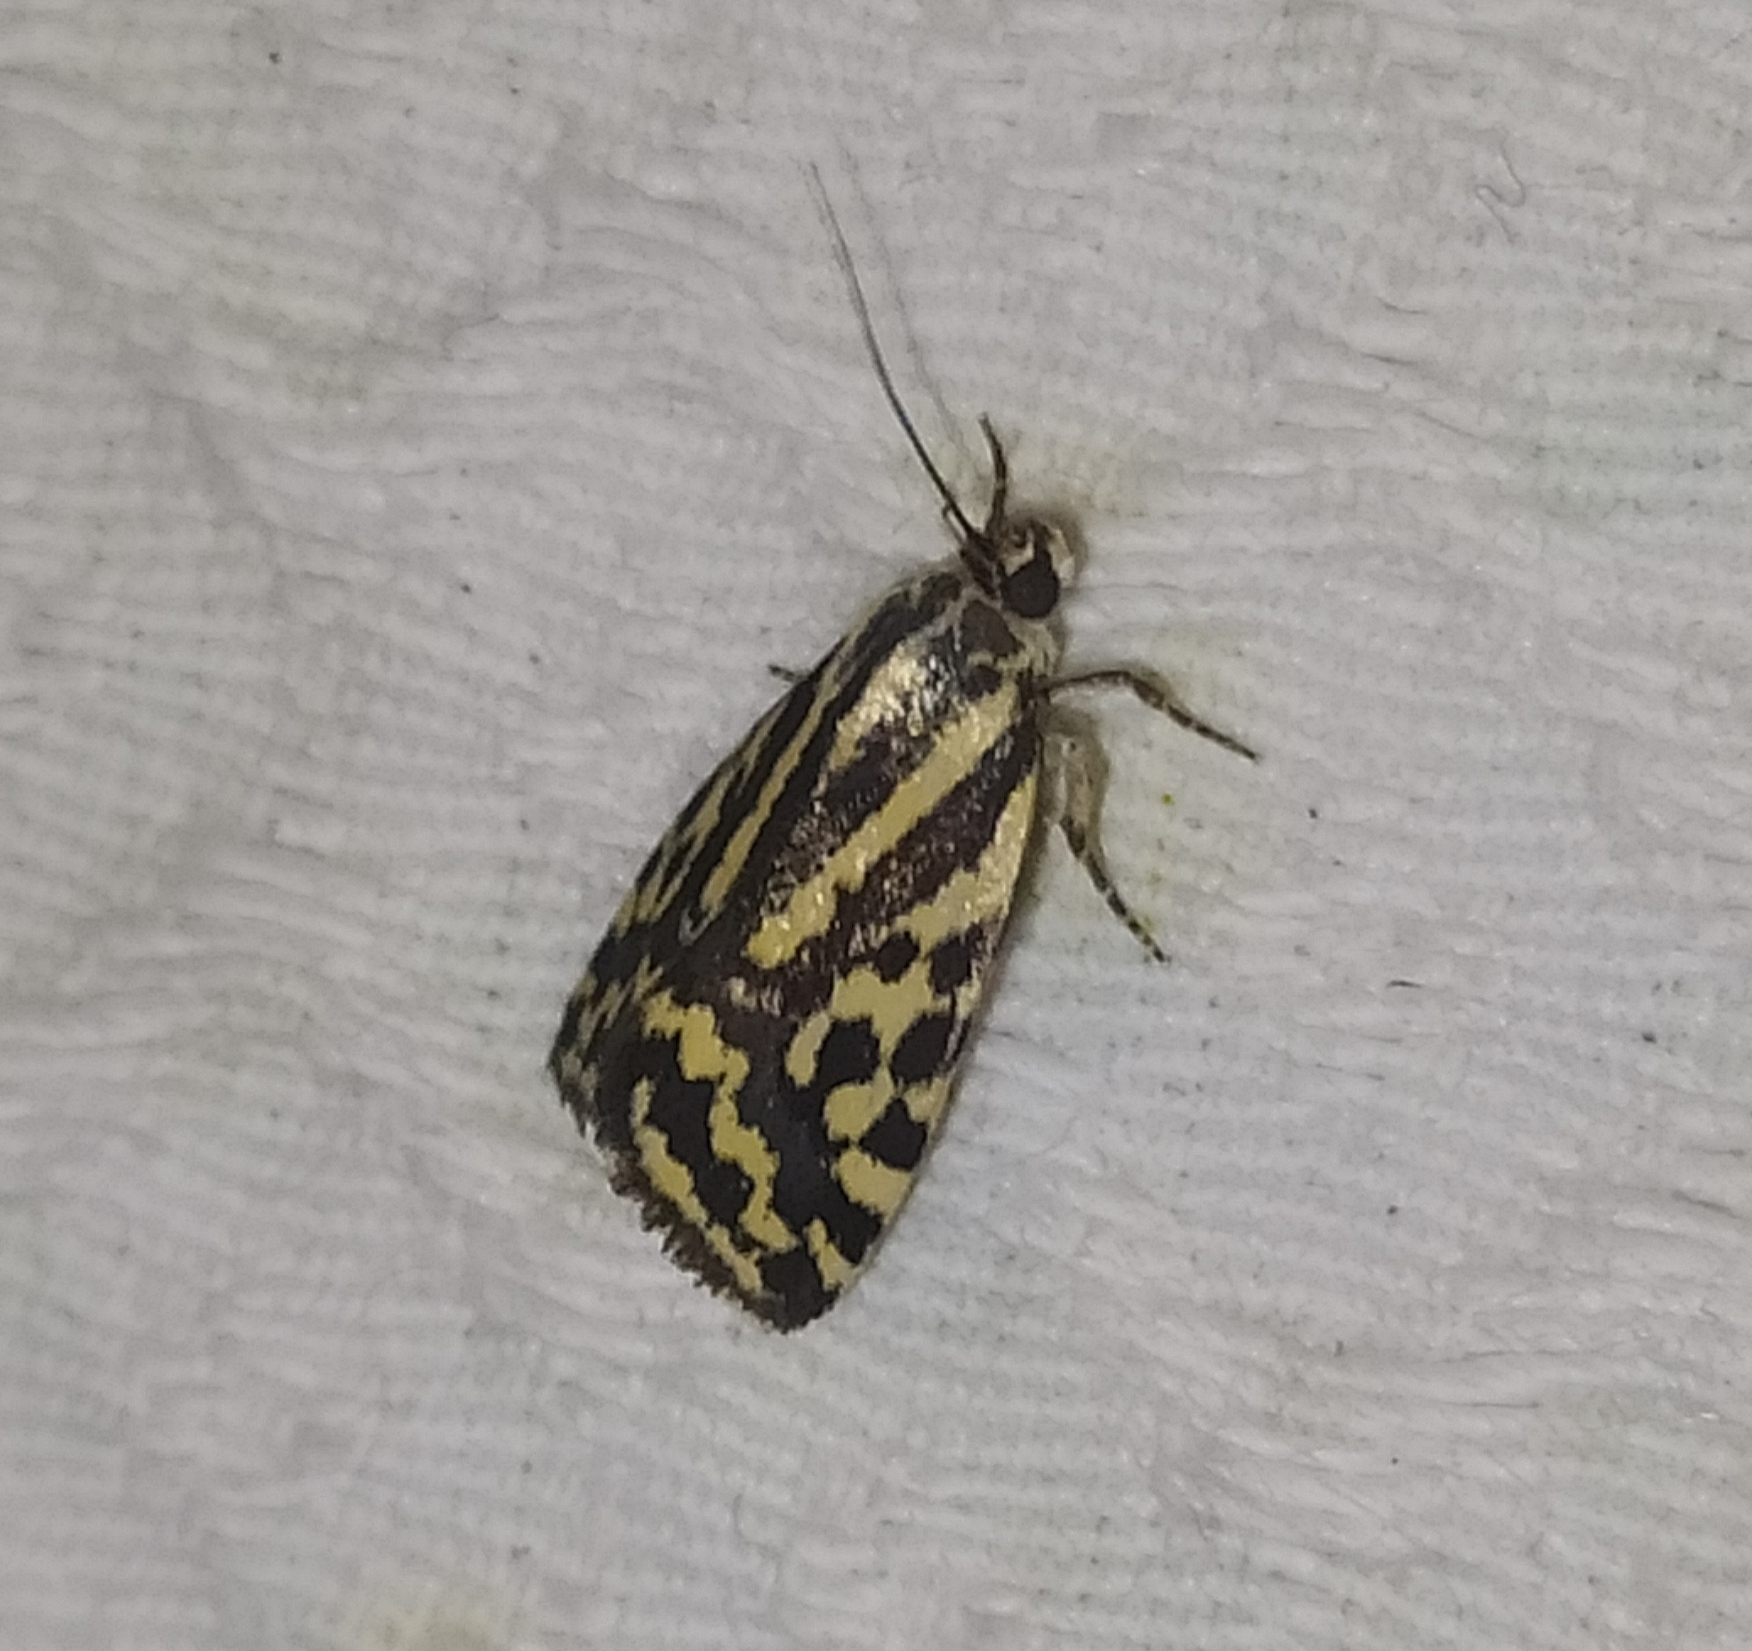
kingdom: Animalia
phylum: Arthropoda
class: Insecta
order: Lepidoptera
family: Noctuidae
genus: Acontia
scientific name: Acontia trabealis
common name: Spotted sulphur
